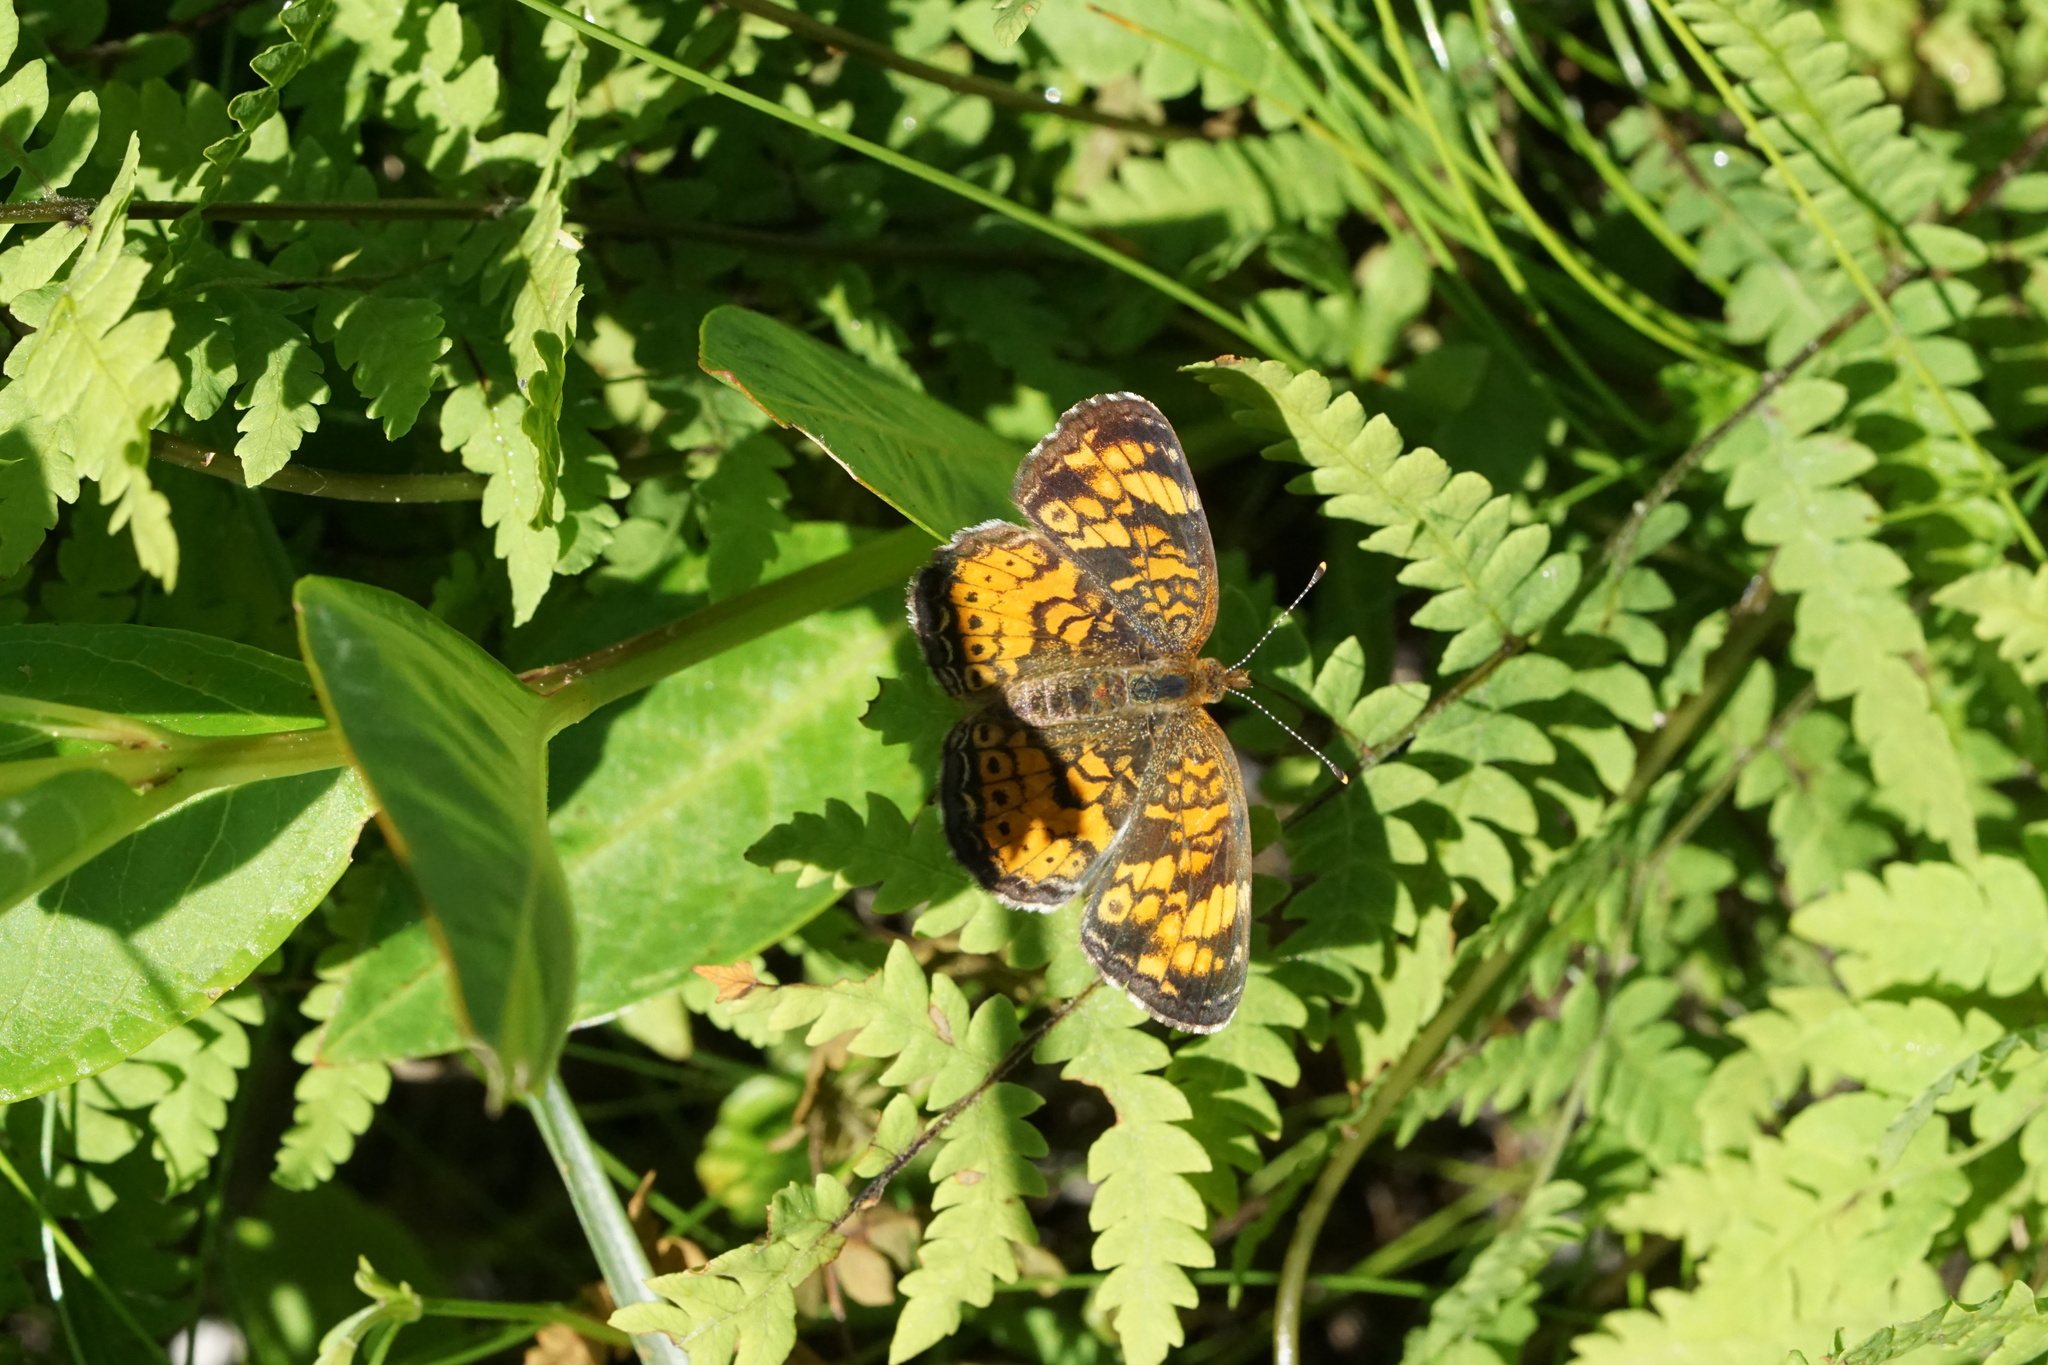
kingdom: Animalia
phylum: Arthropoda
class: Insecta
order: Lepidoptera
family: Nymphalidae
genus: Phyciodes
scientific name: Phyciodes tharos
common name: Pearl crescent
